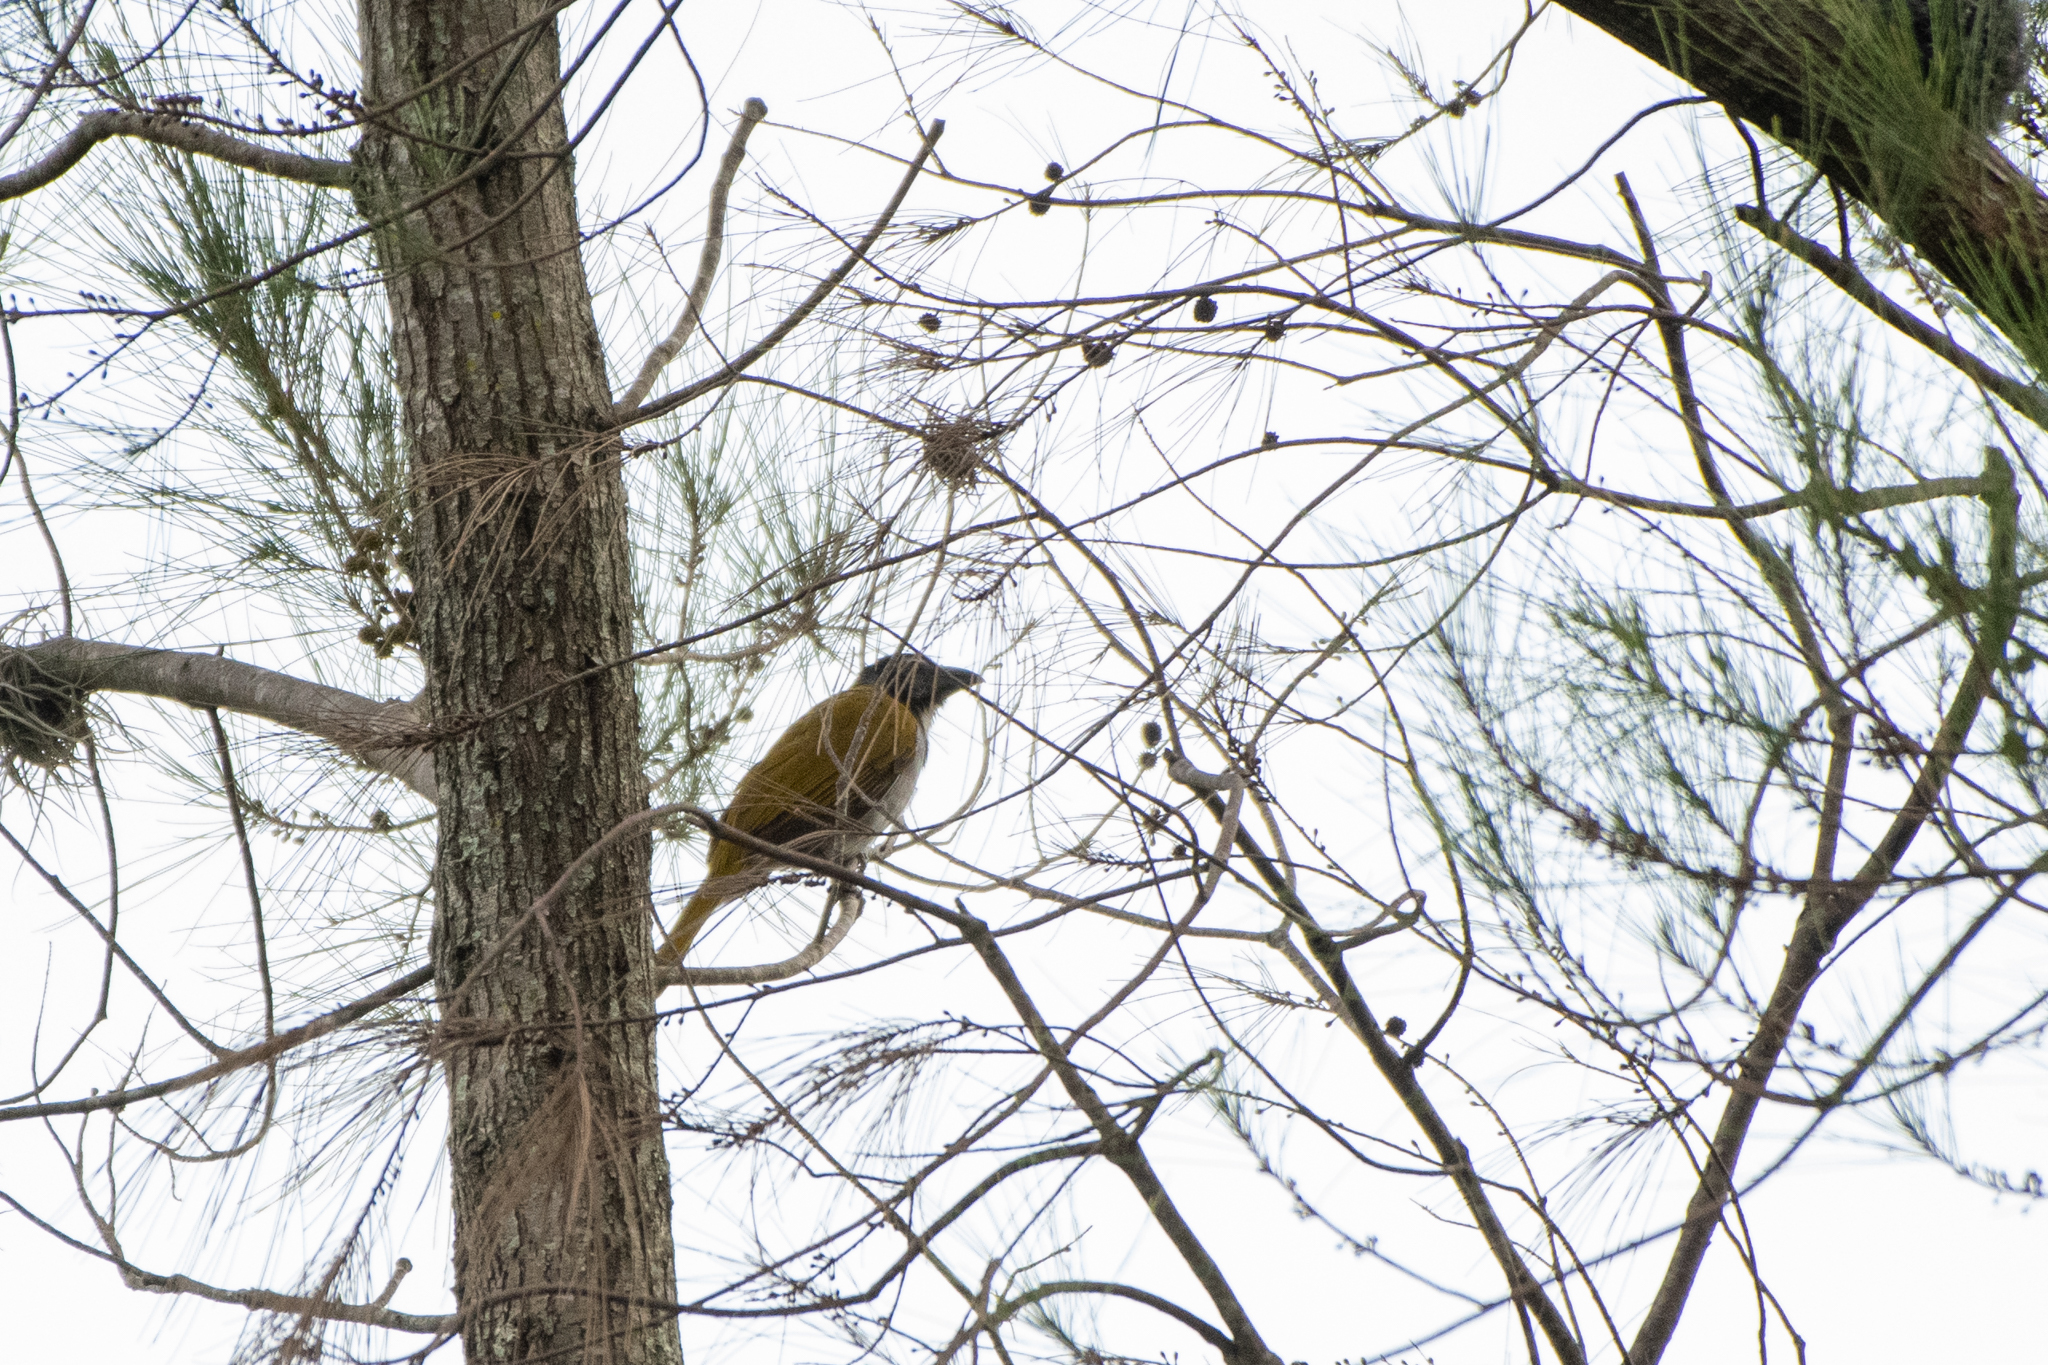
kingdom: Animalia
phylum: Chordata
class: Aves
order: Passeriformes
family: Thraupidae
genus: Saltator
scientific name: Saltator atriceps
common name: Black-headed saltator
